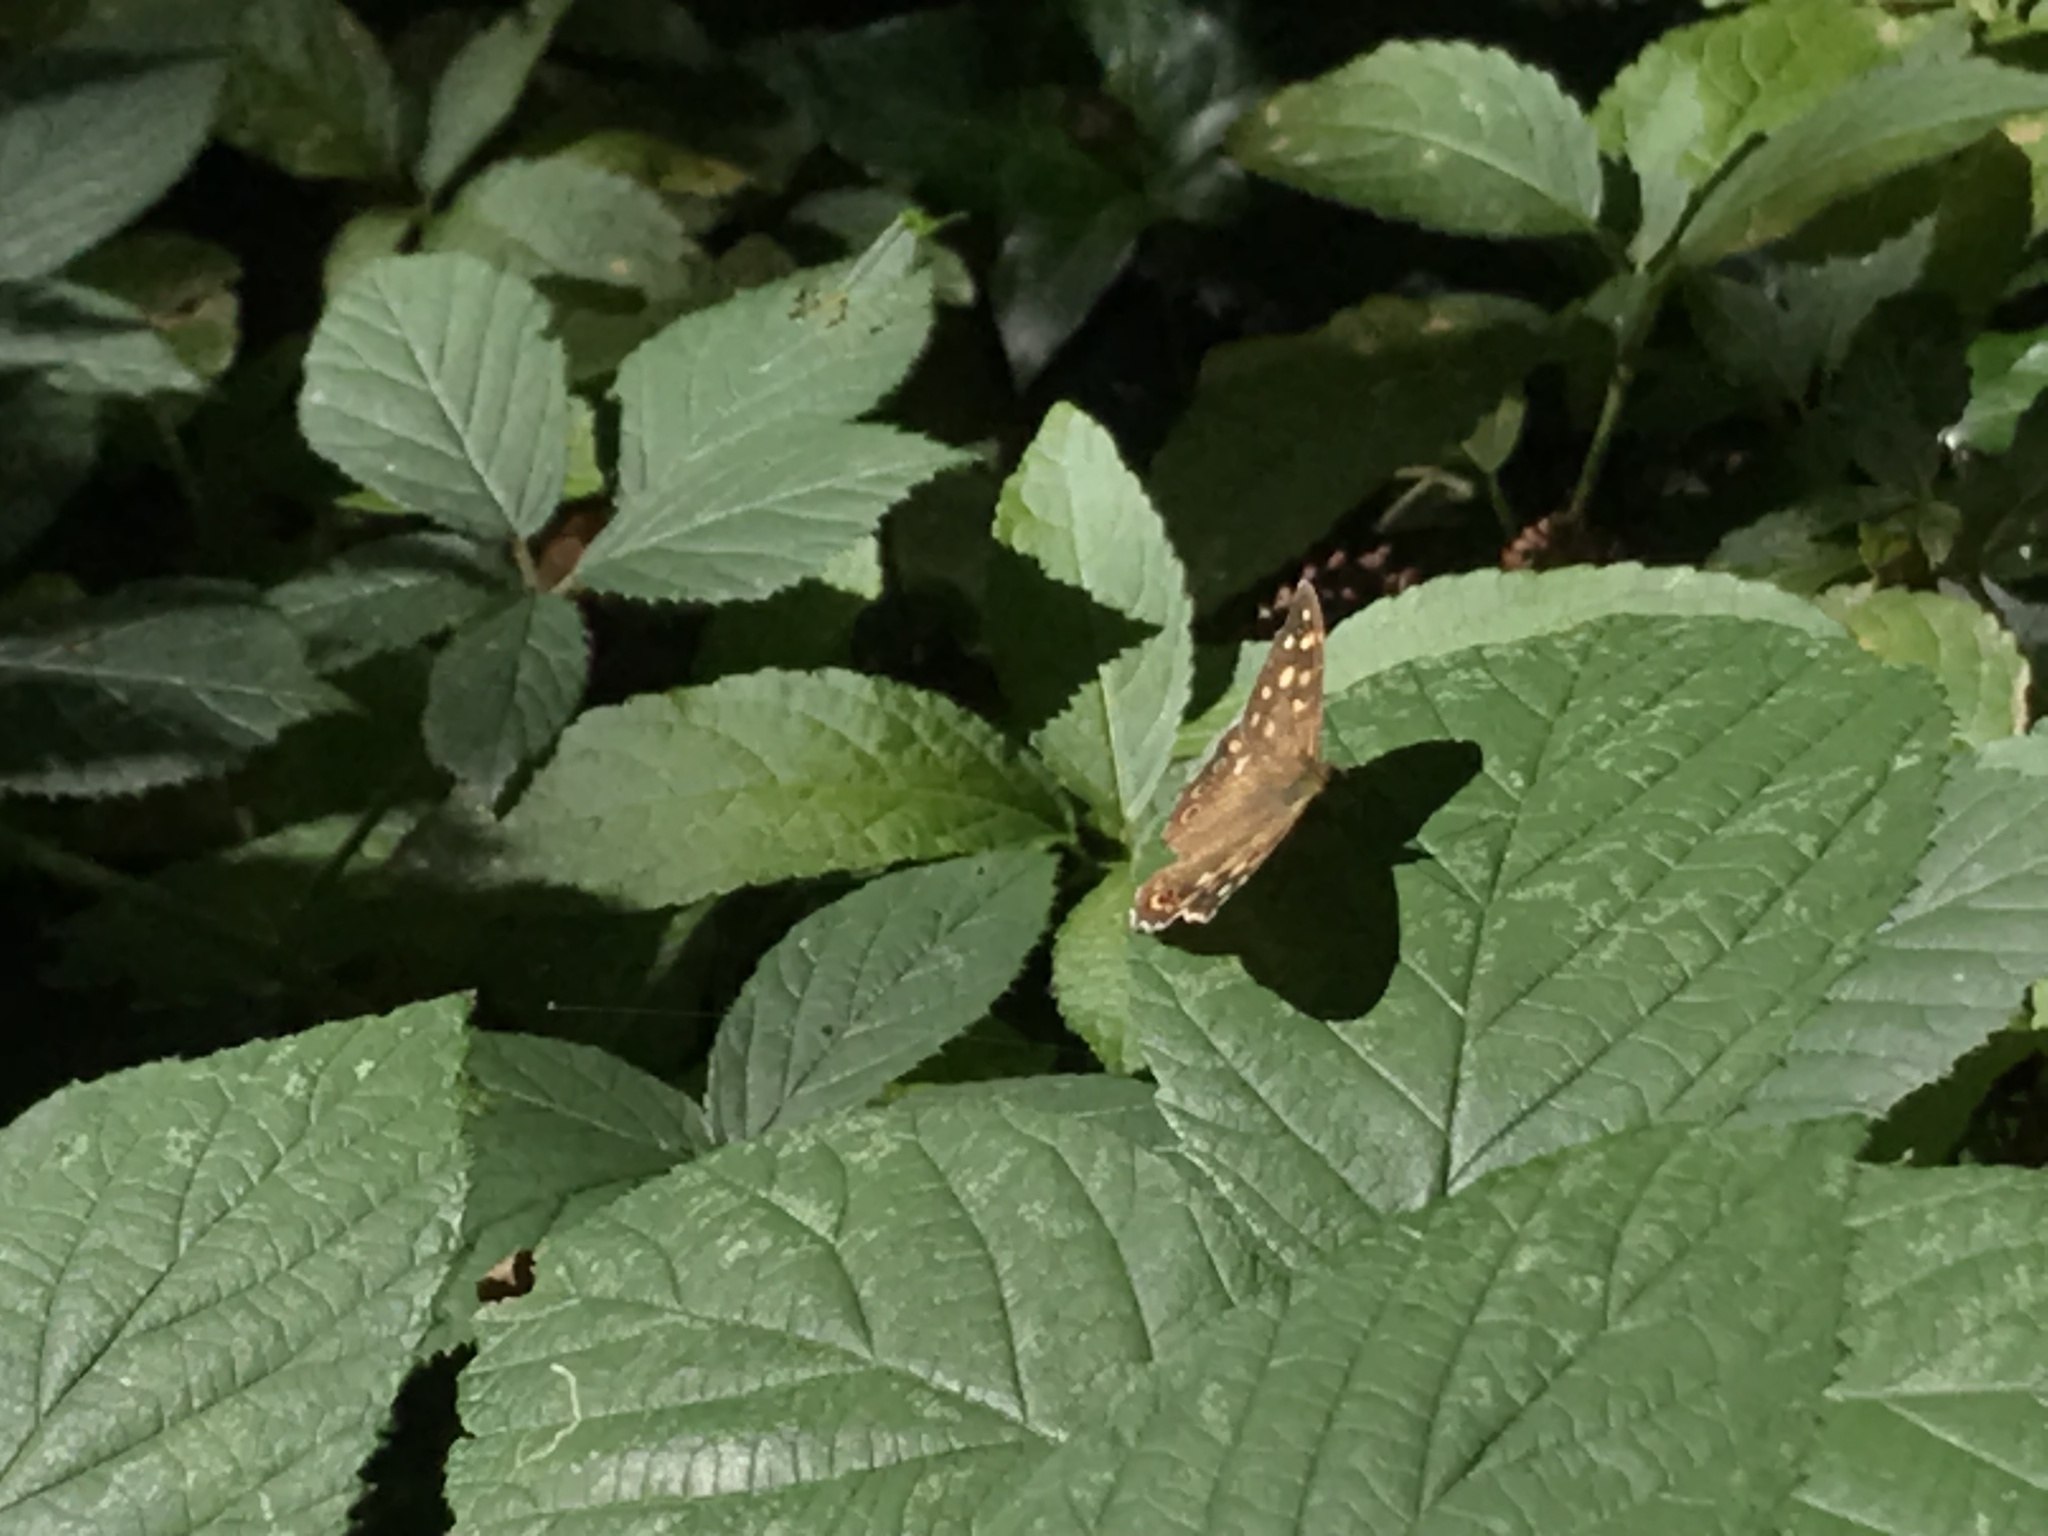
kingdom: Animalia
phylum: Arthropoda
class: Insecta
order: Lepidoptera
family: Nymphalidae
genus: Pararge
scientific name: Pararge aegeria
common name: Speckled wood
